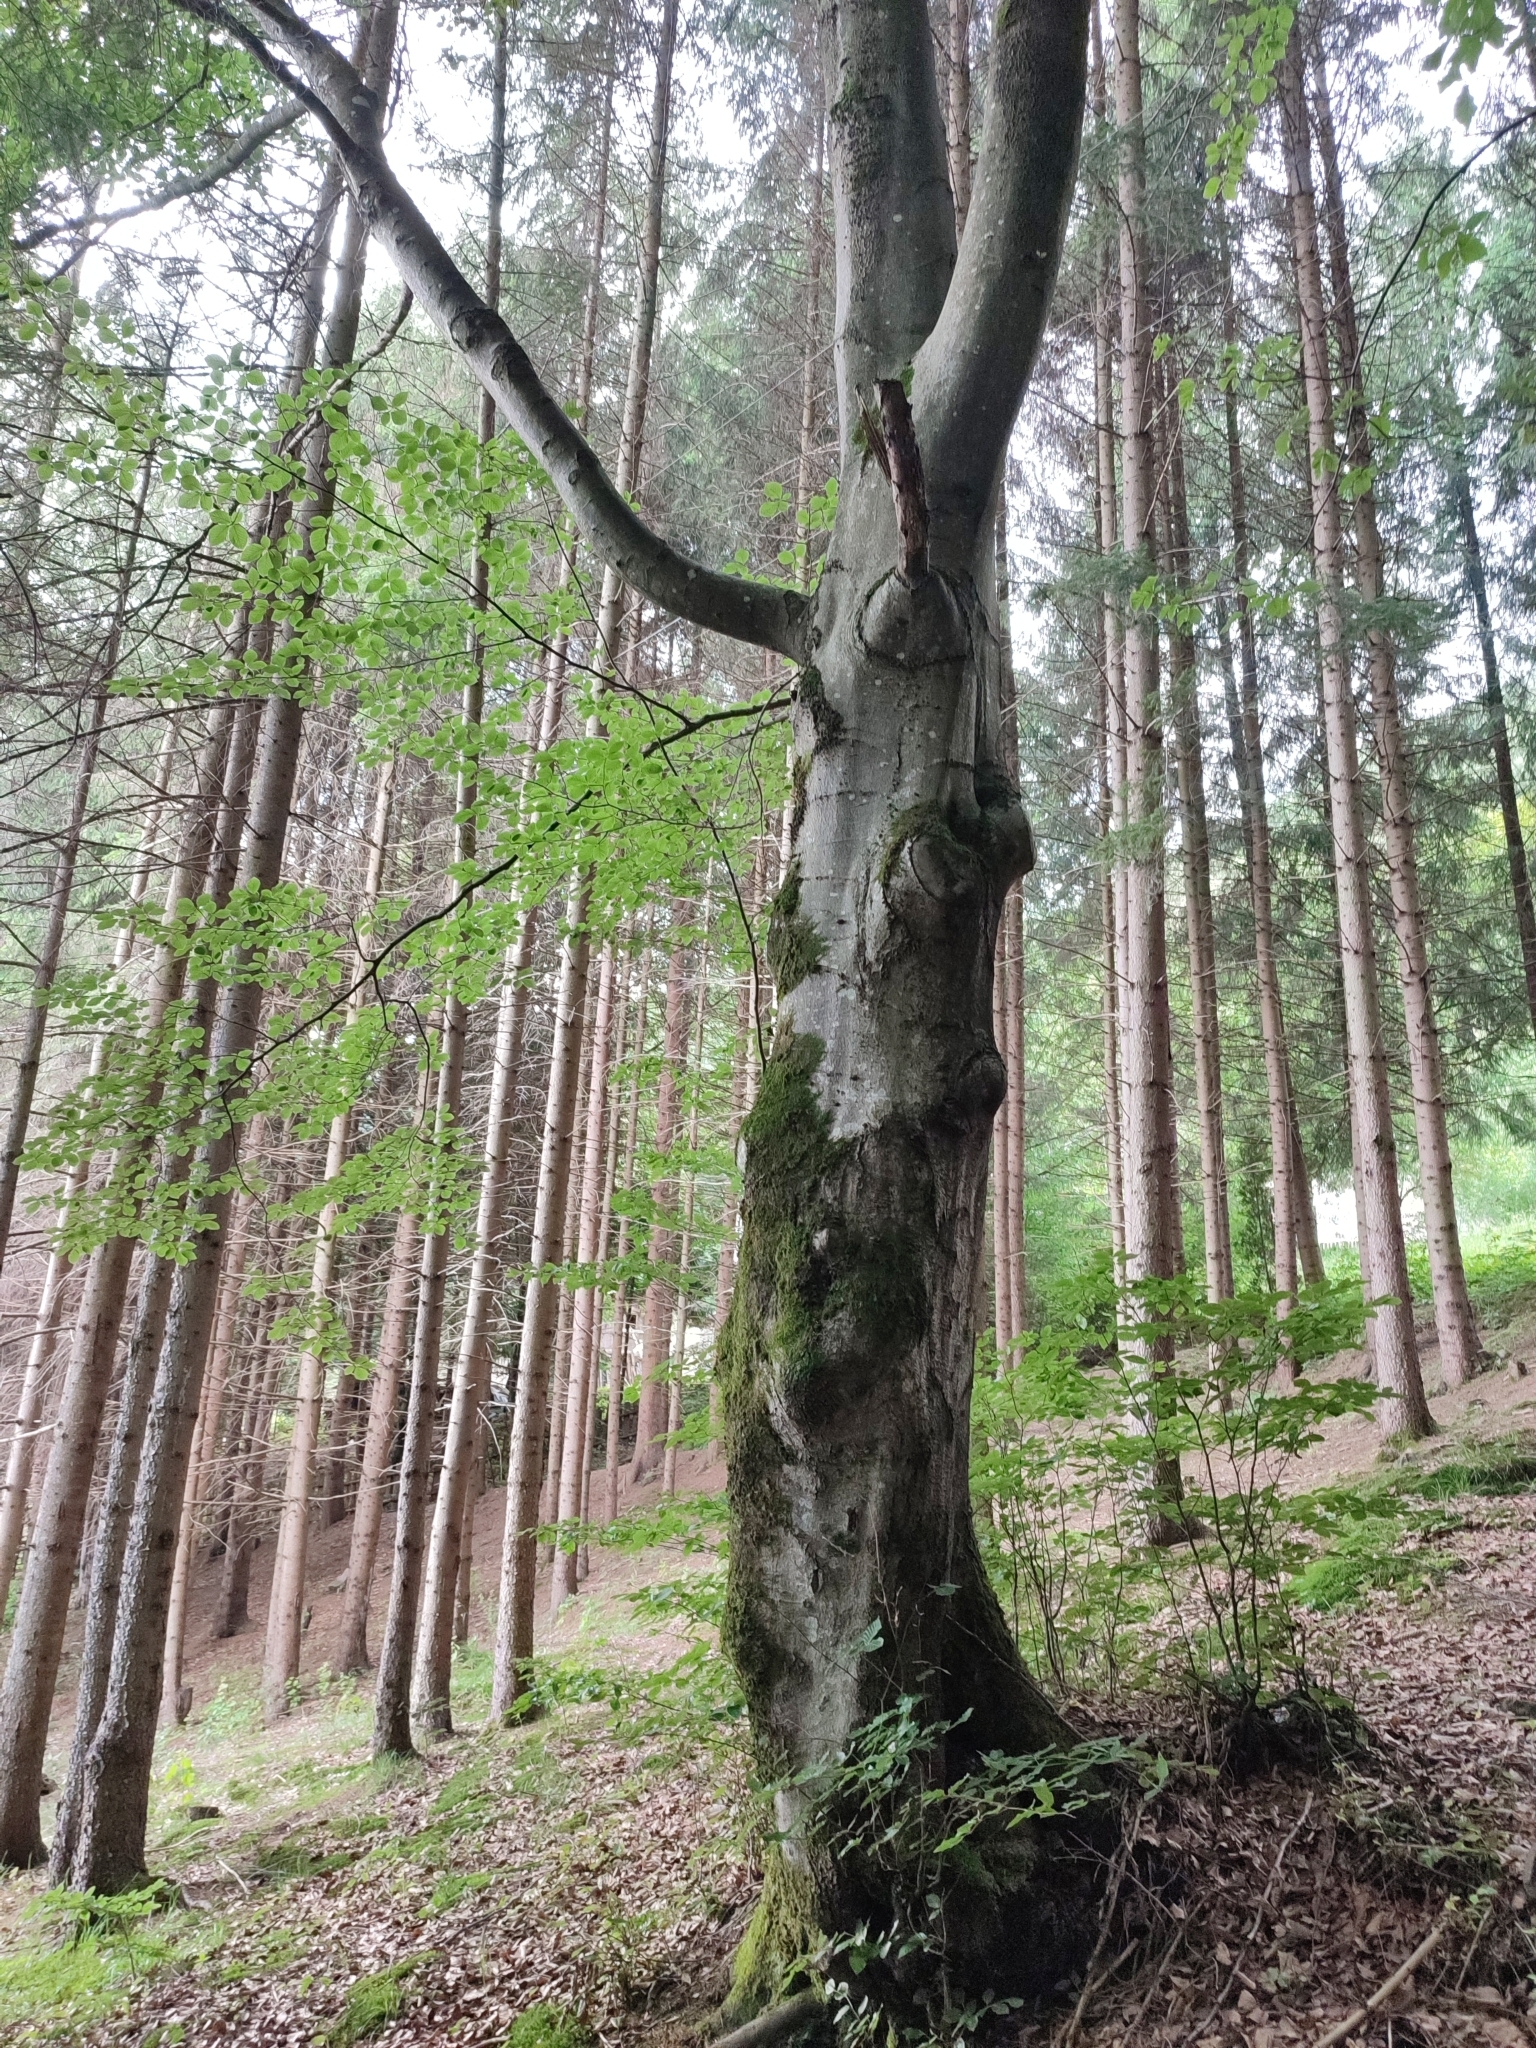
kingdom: Plantae
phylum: Tracheophyta
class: Magnoliopsida
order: Fagales
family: Fagaceae
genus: Fagus
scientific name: Fagus sylvatica
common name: Beech
